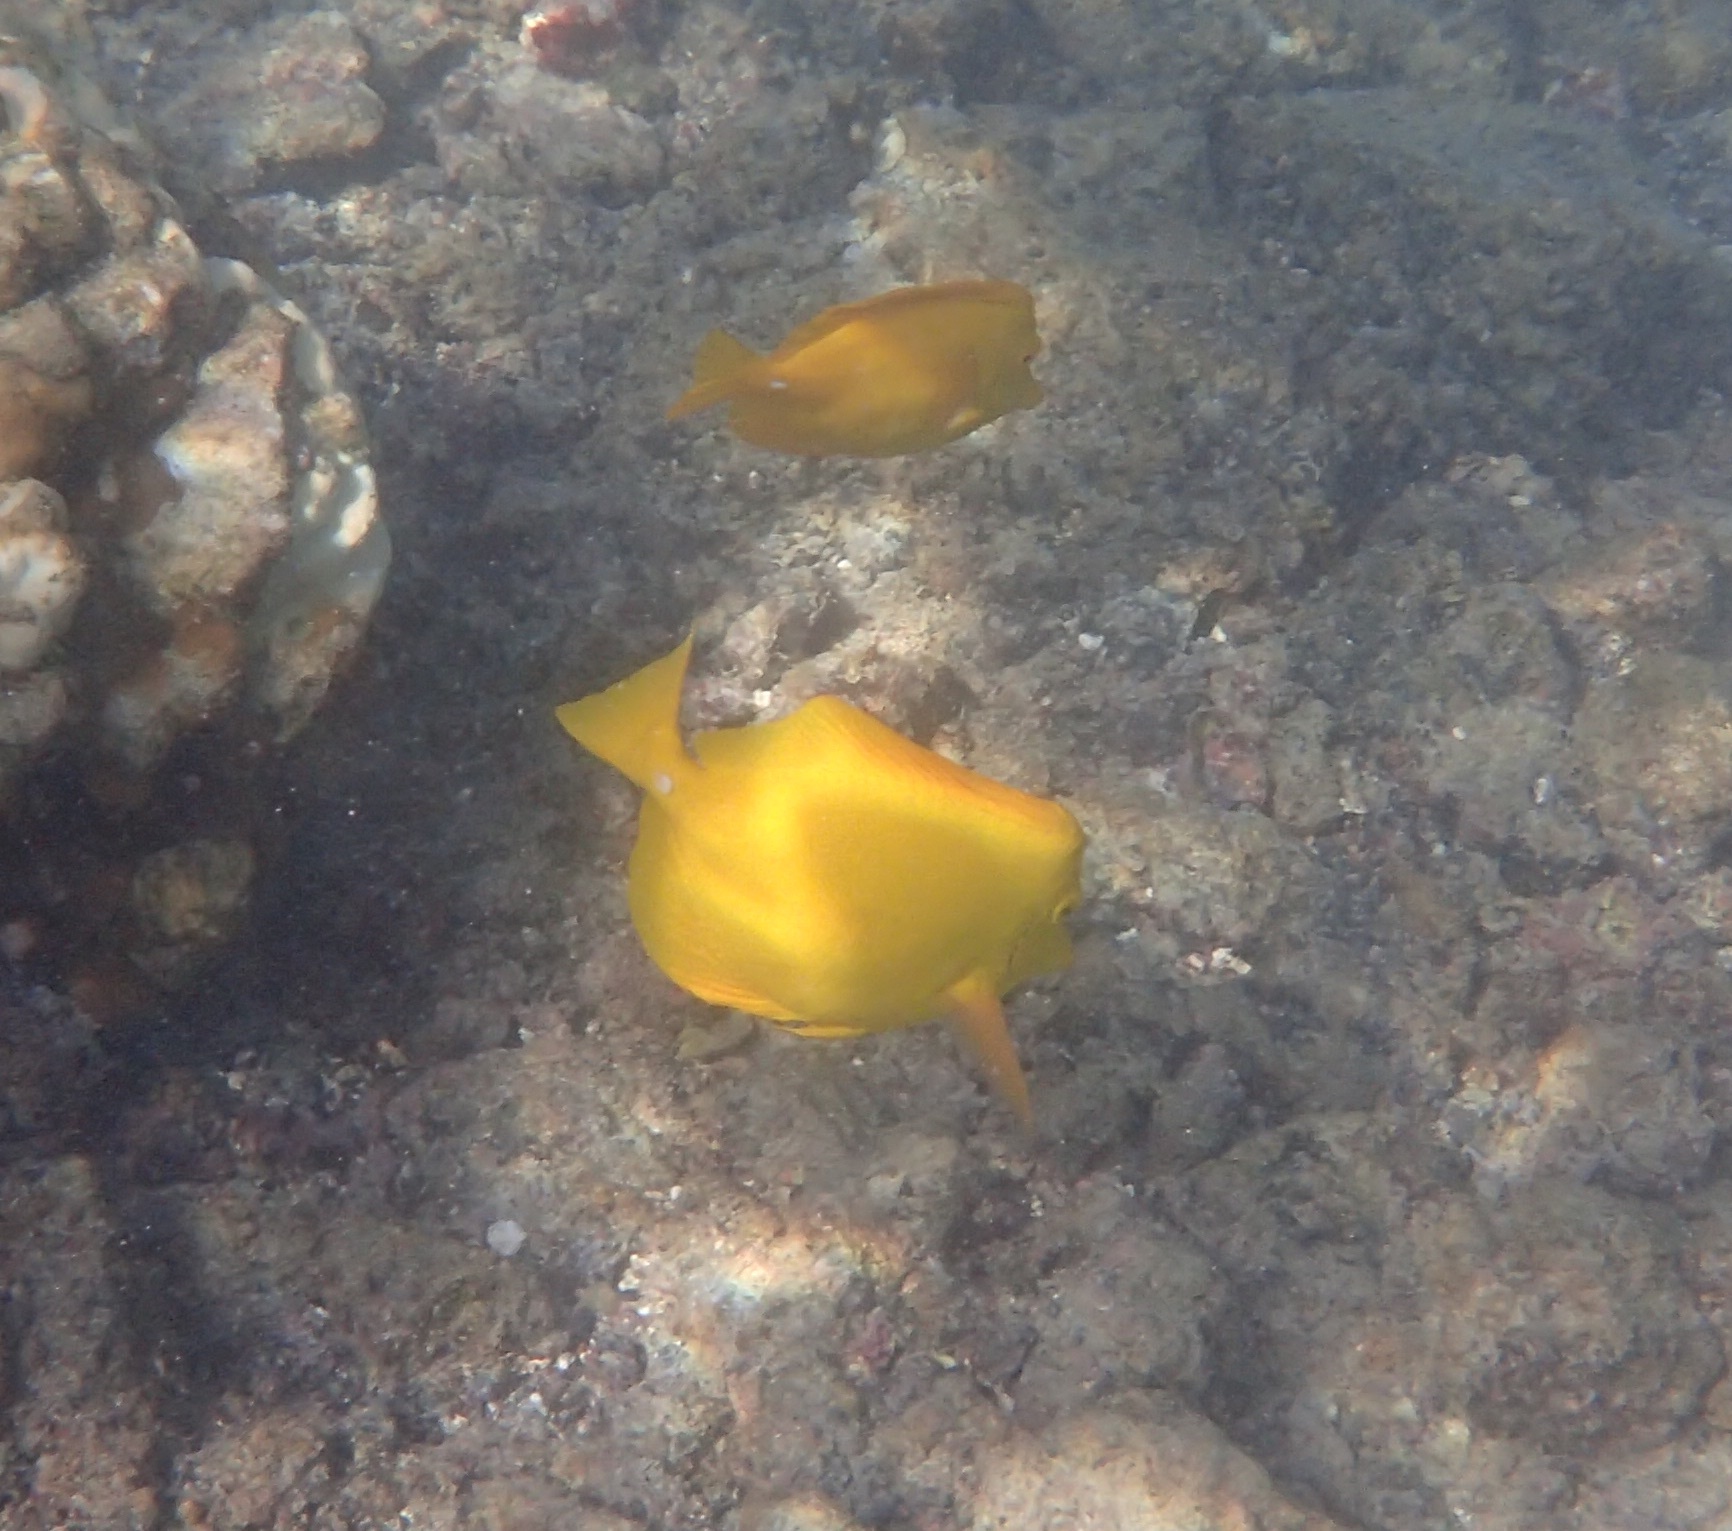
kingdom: Animalia
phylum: Chordata
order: Perciformes
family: Acanthuridae
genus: Zebrasoma
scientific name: Zebrasoma flavescens
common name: Yellow tang
